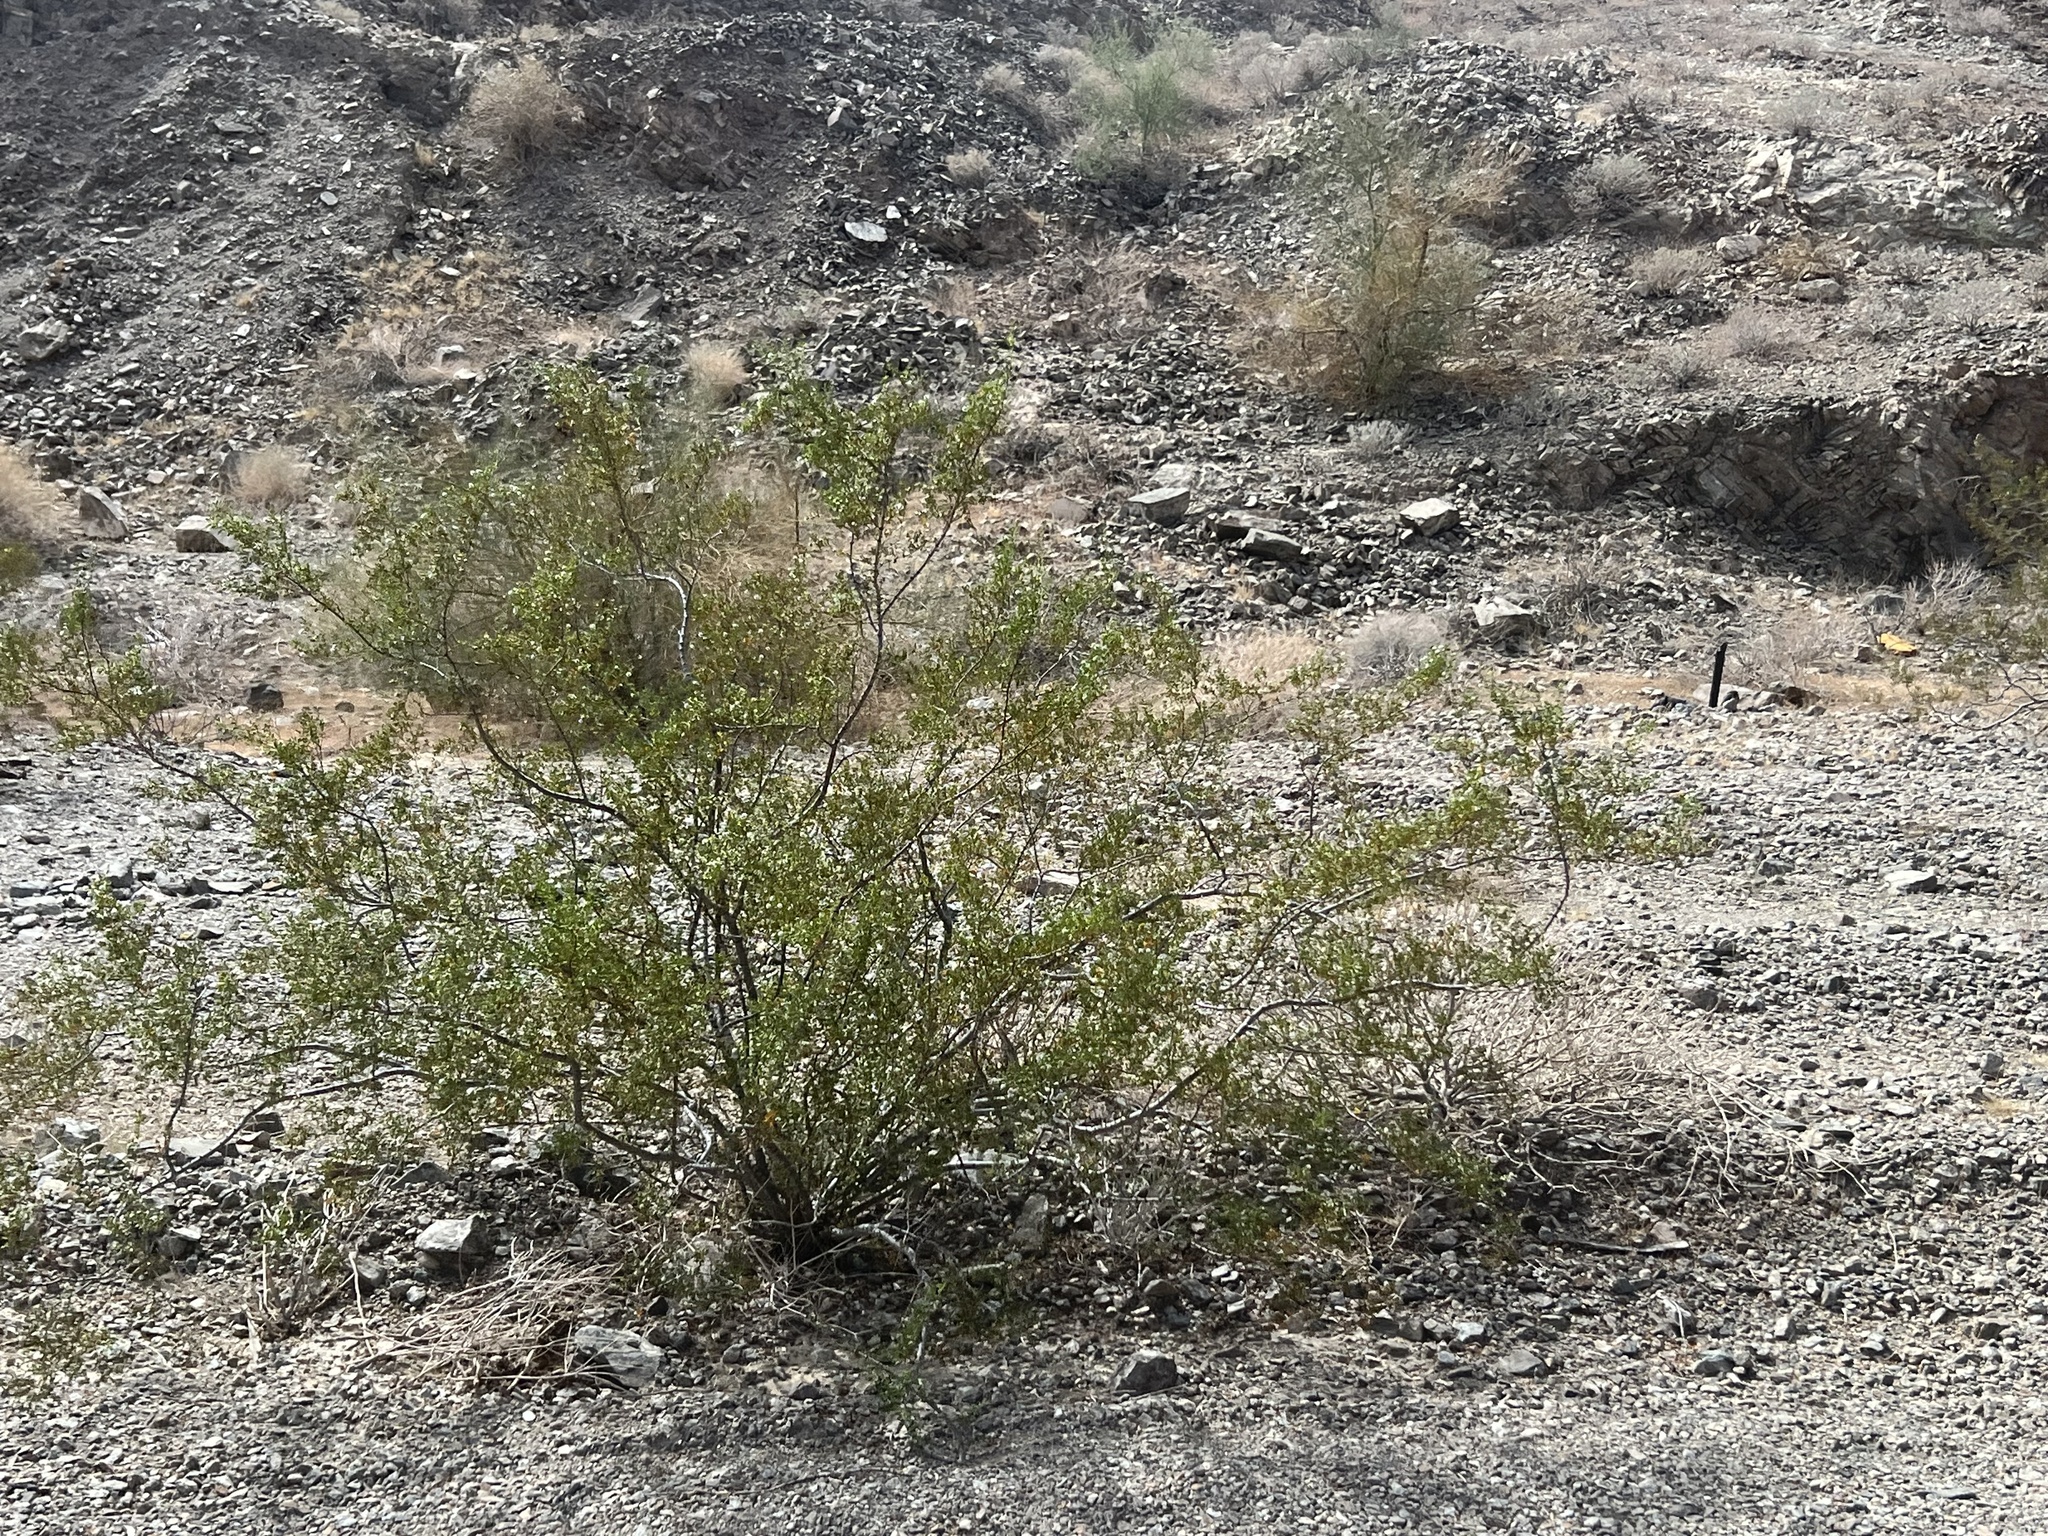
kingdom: Plantae
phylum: Tracheophyta
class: Magnoliopsida
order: Zygophyllales
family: Zygophyllaceae
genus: Larrea
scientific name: Larrea tridentata
